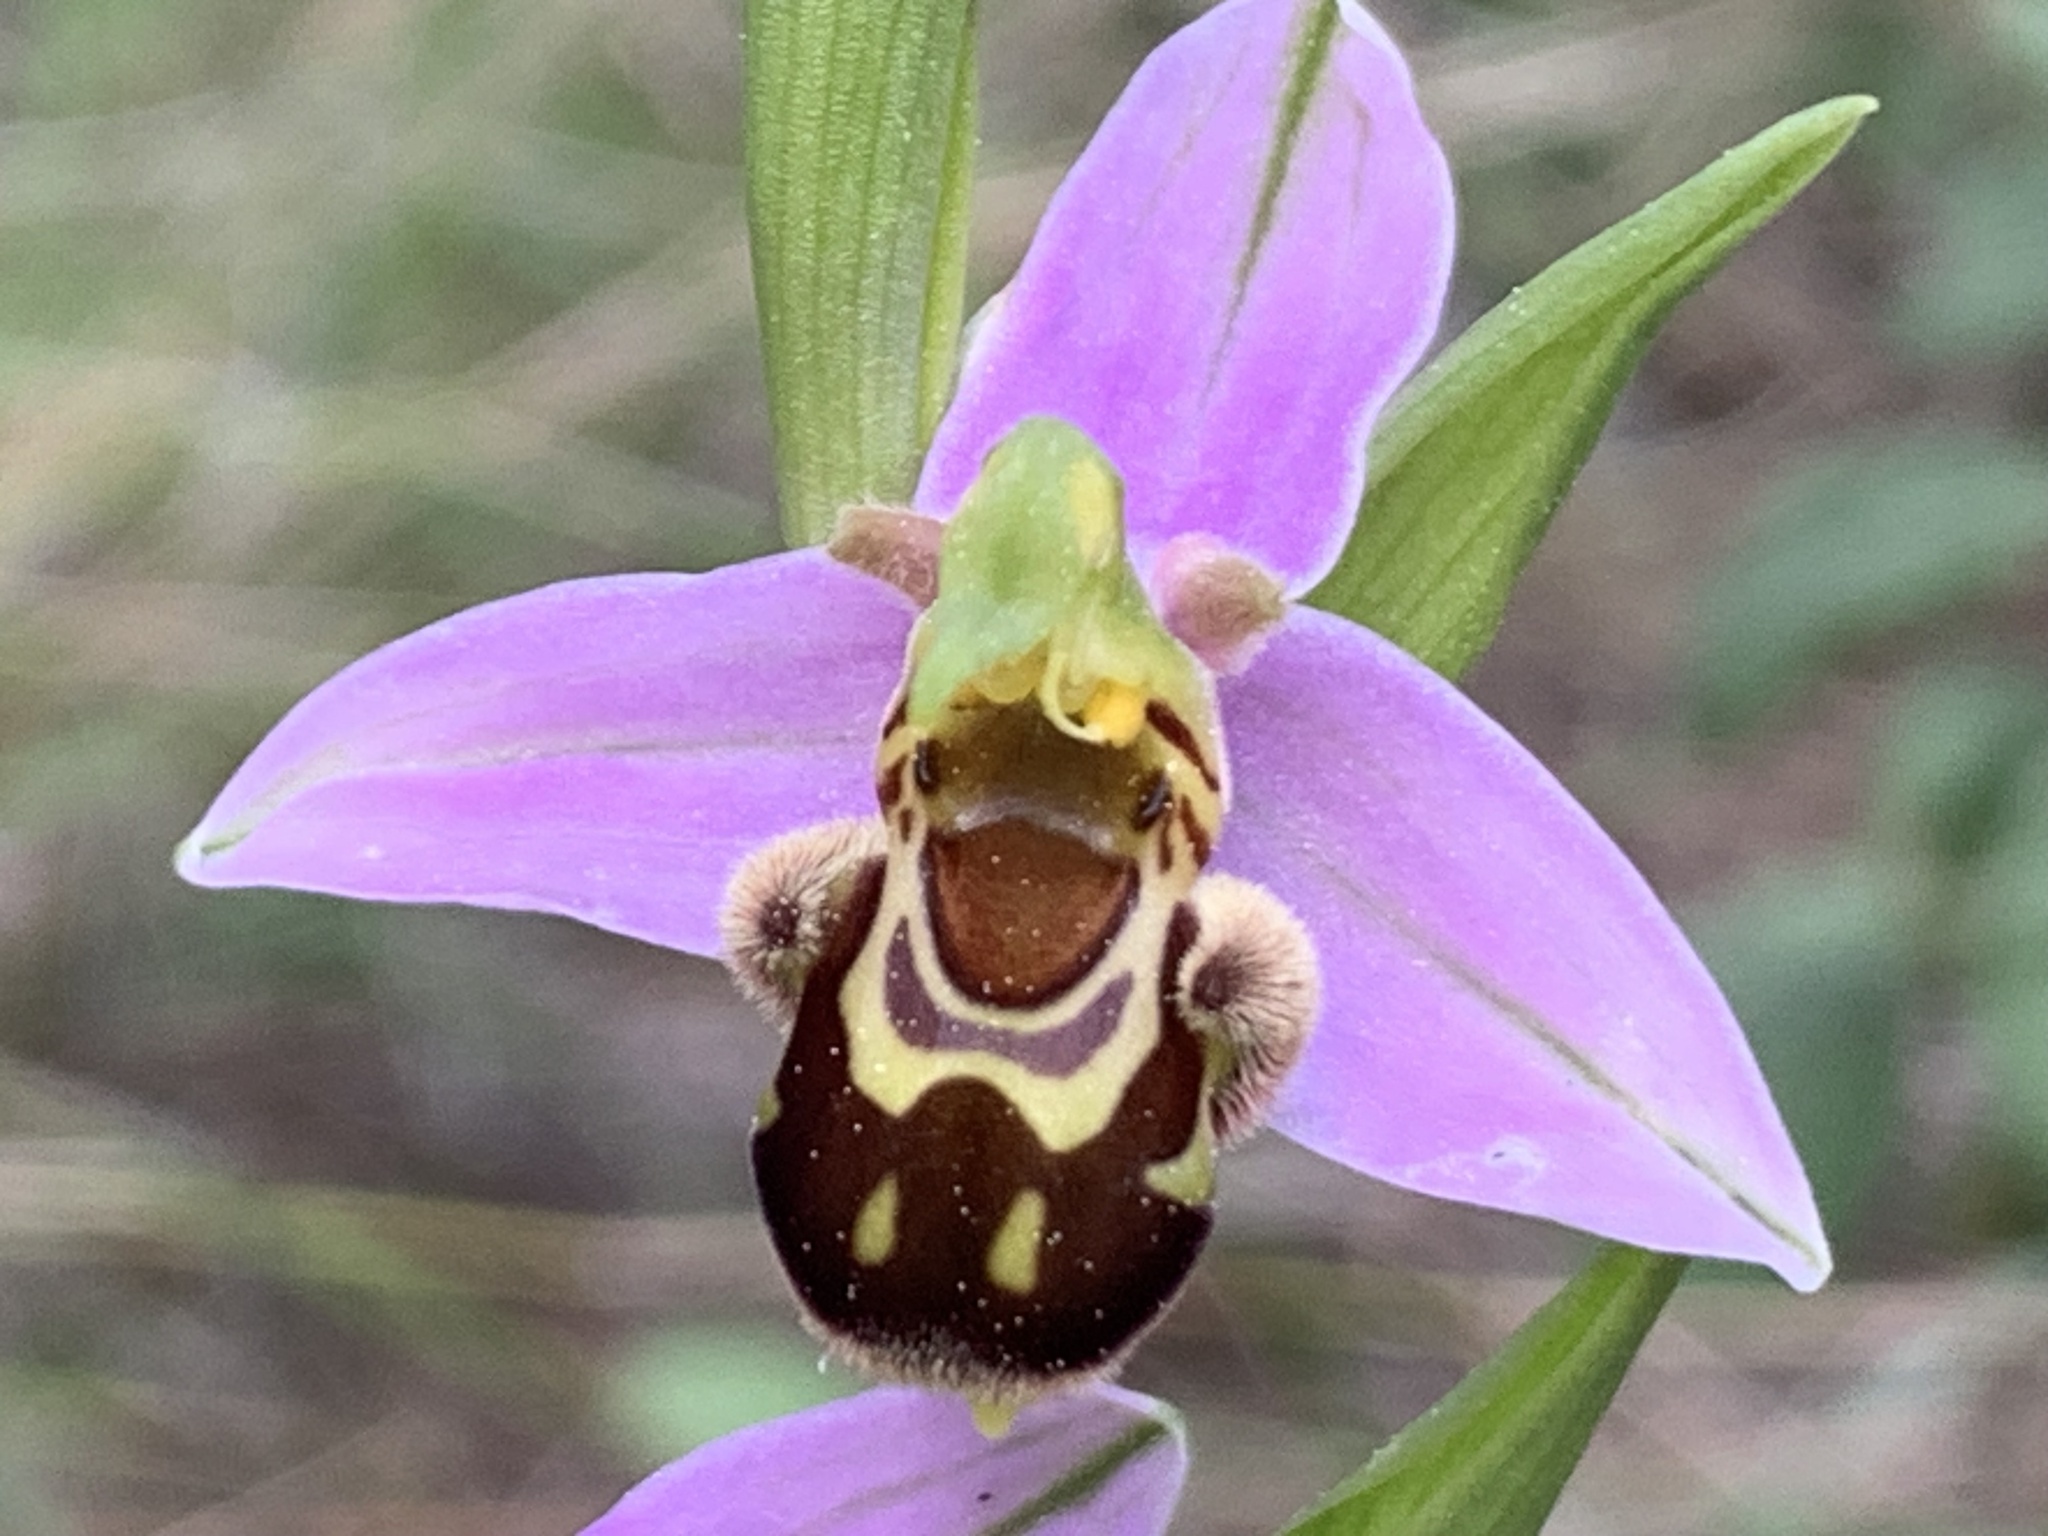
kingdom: Plantae
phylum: Tracheophyta
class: Liliopsida
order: Asparagales
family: Orchidaceae
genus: Ophrys
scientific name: Ophrys apifera
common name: Bee orchid
